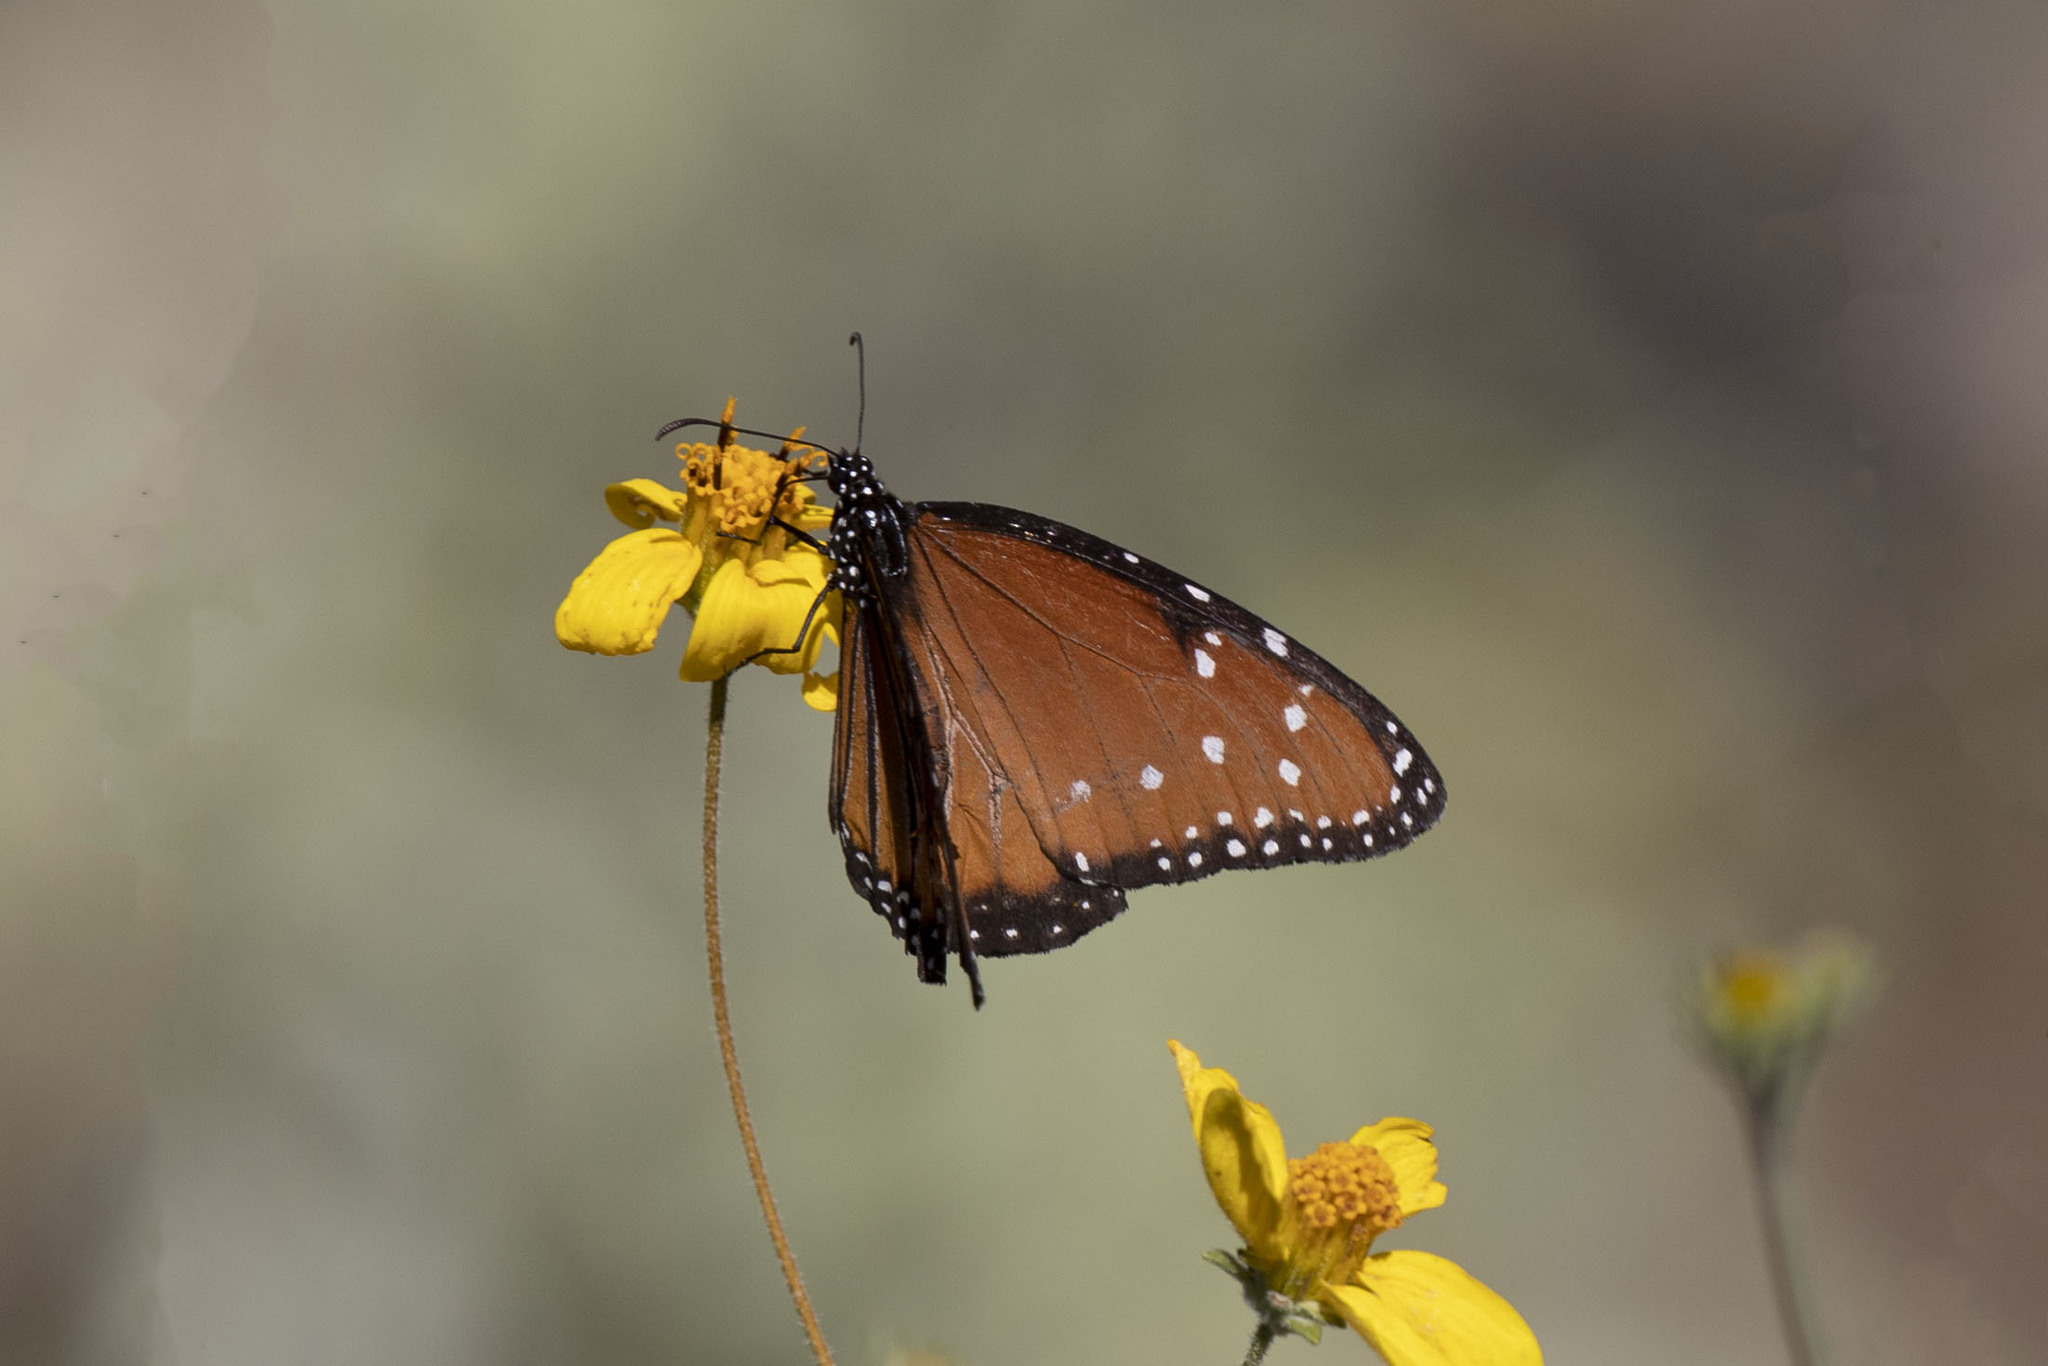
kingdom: Animalia
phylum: Arthropoda
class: Insecta
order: Lepidoptera
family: Nymphalidae
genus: Danaus
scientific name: Danaus gilippus
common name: Queen
